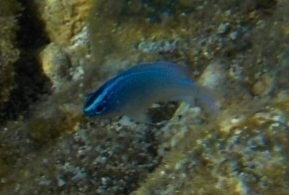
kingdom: Animalia
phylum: Chordata
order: Perciformes
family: Pomacentridae
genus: Chrysiptera
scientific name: Chrysiptera glauca
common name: Grey demoiselle
